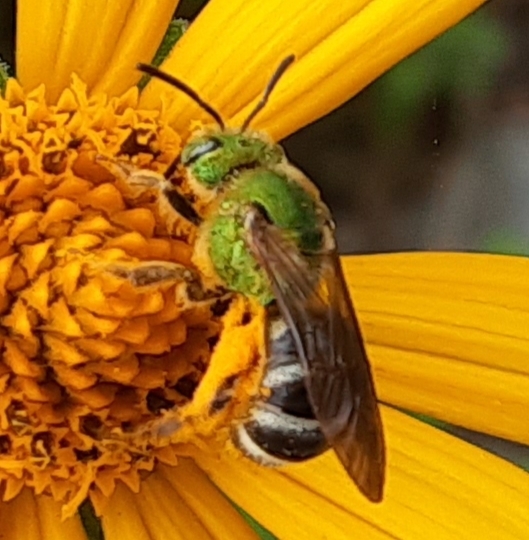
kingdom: Animalia
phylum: Arthropoda
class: Insecta
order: Hymenoptera
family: Halictidae
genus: Agapostemon
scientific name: Agapostemon virescens
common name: Bicolored striped sweat bee
